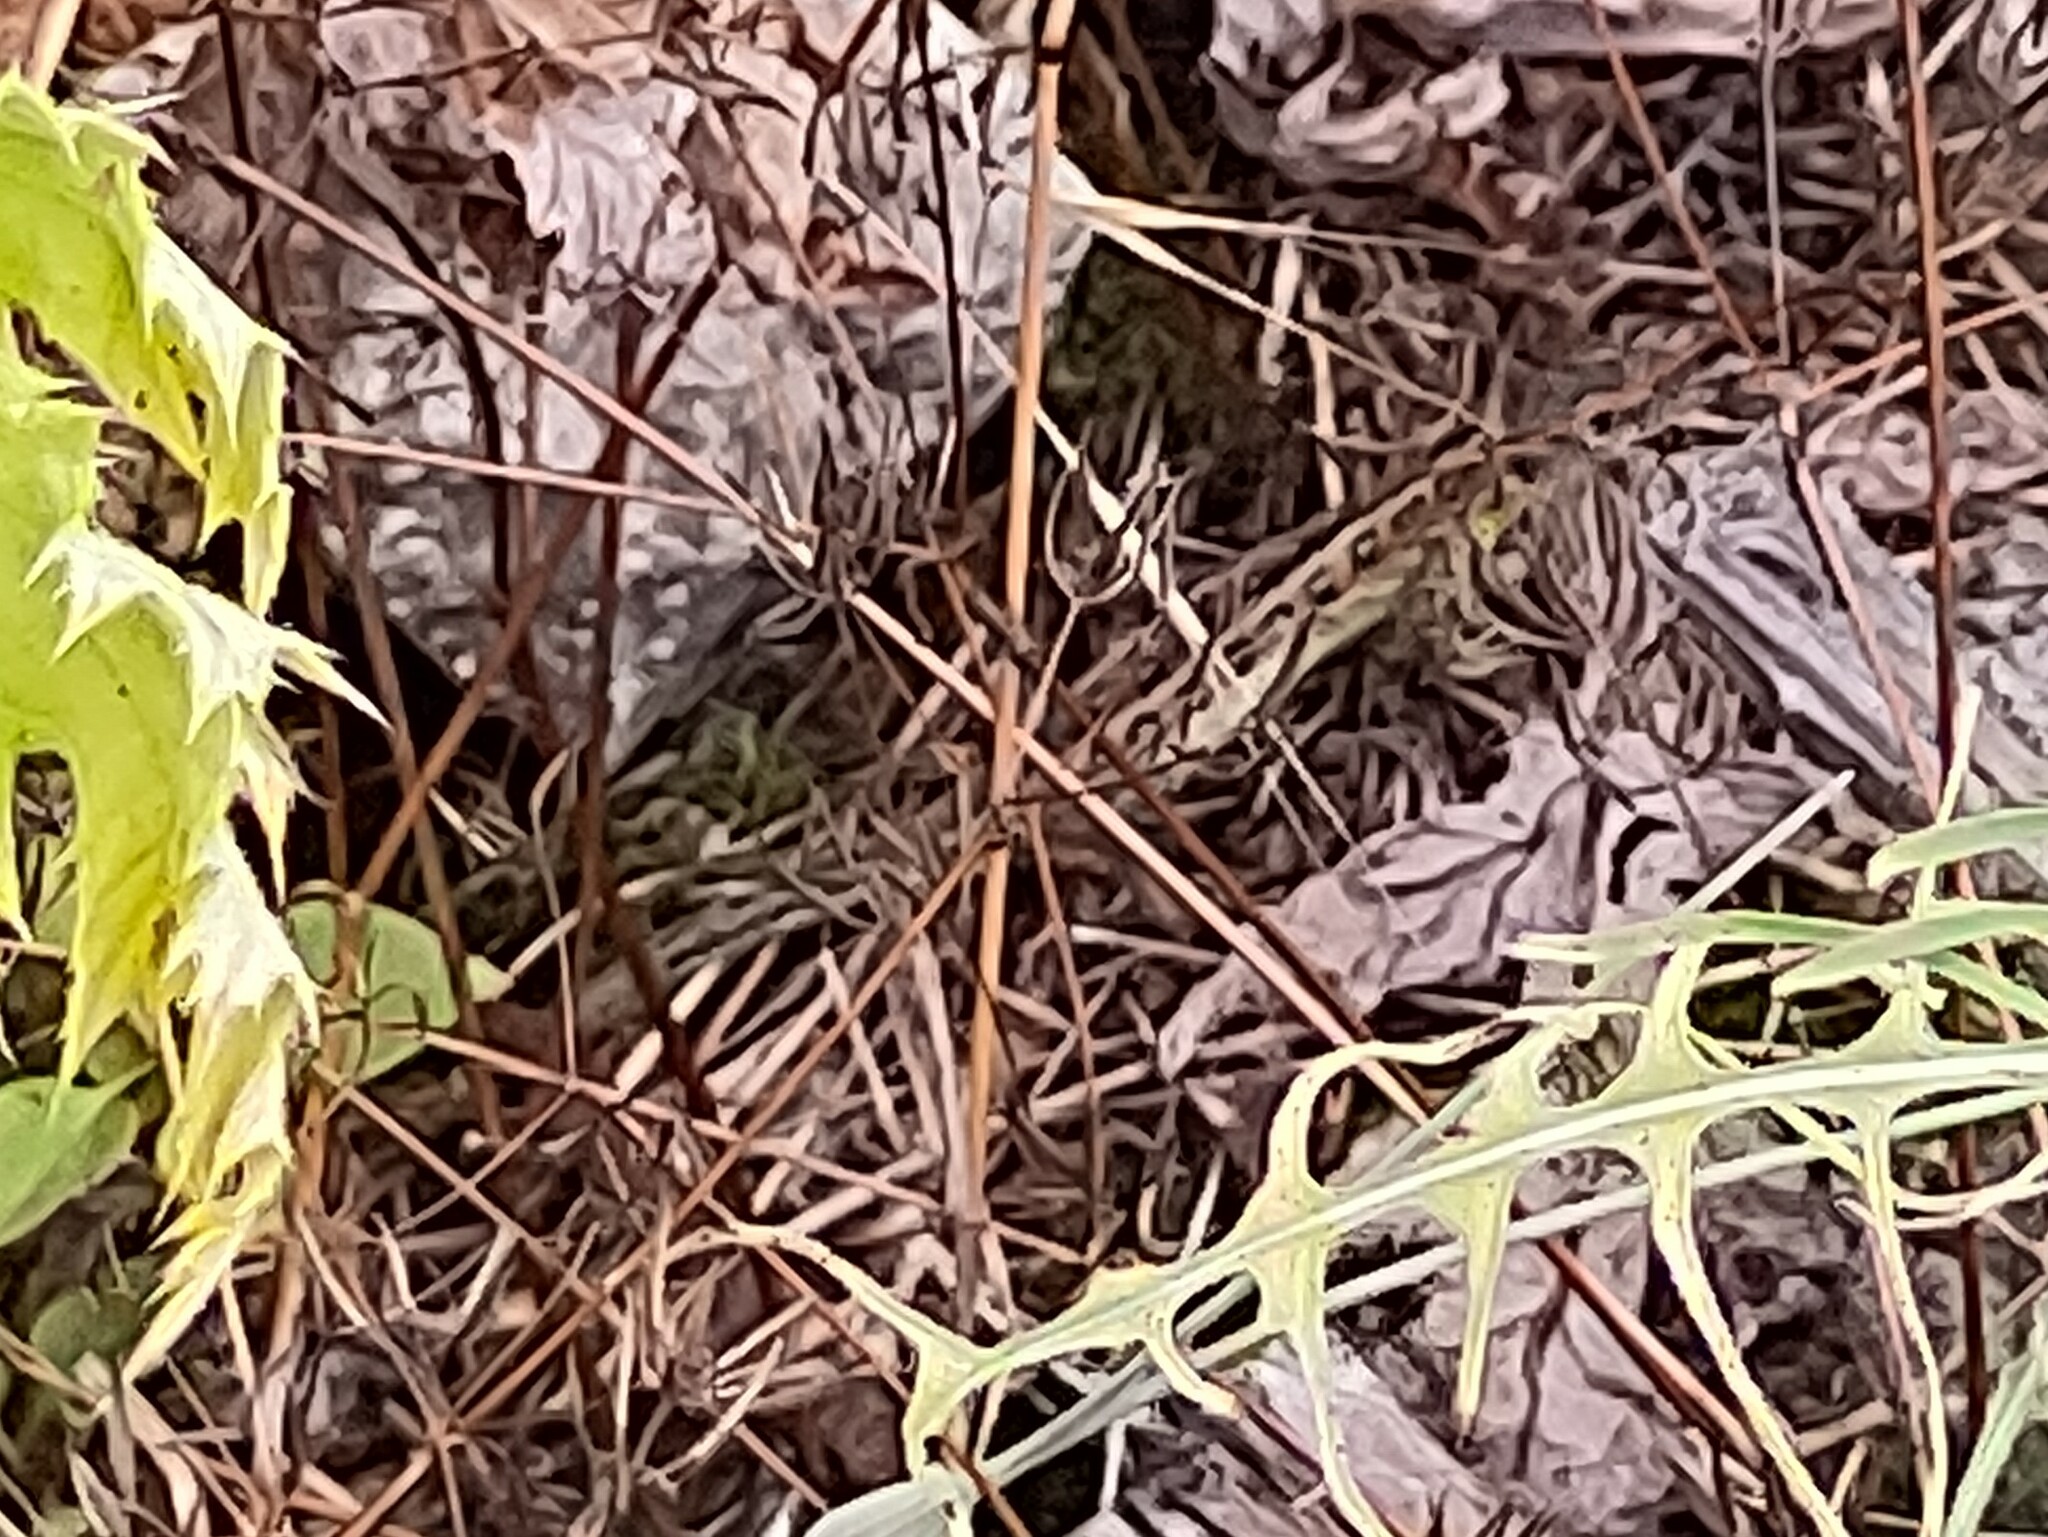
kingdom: Animalia
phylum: Chordata
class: Squamata
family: Lacertidae
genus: Lacerta
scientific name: Lacerta agilis
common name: Sand lizard
